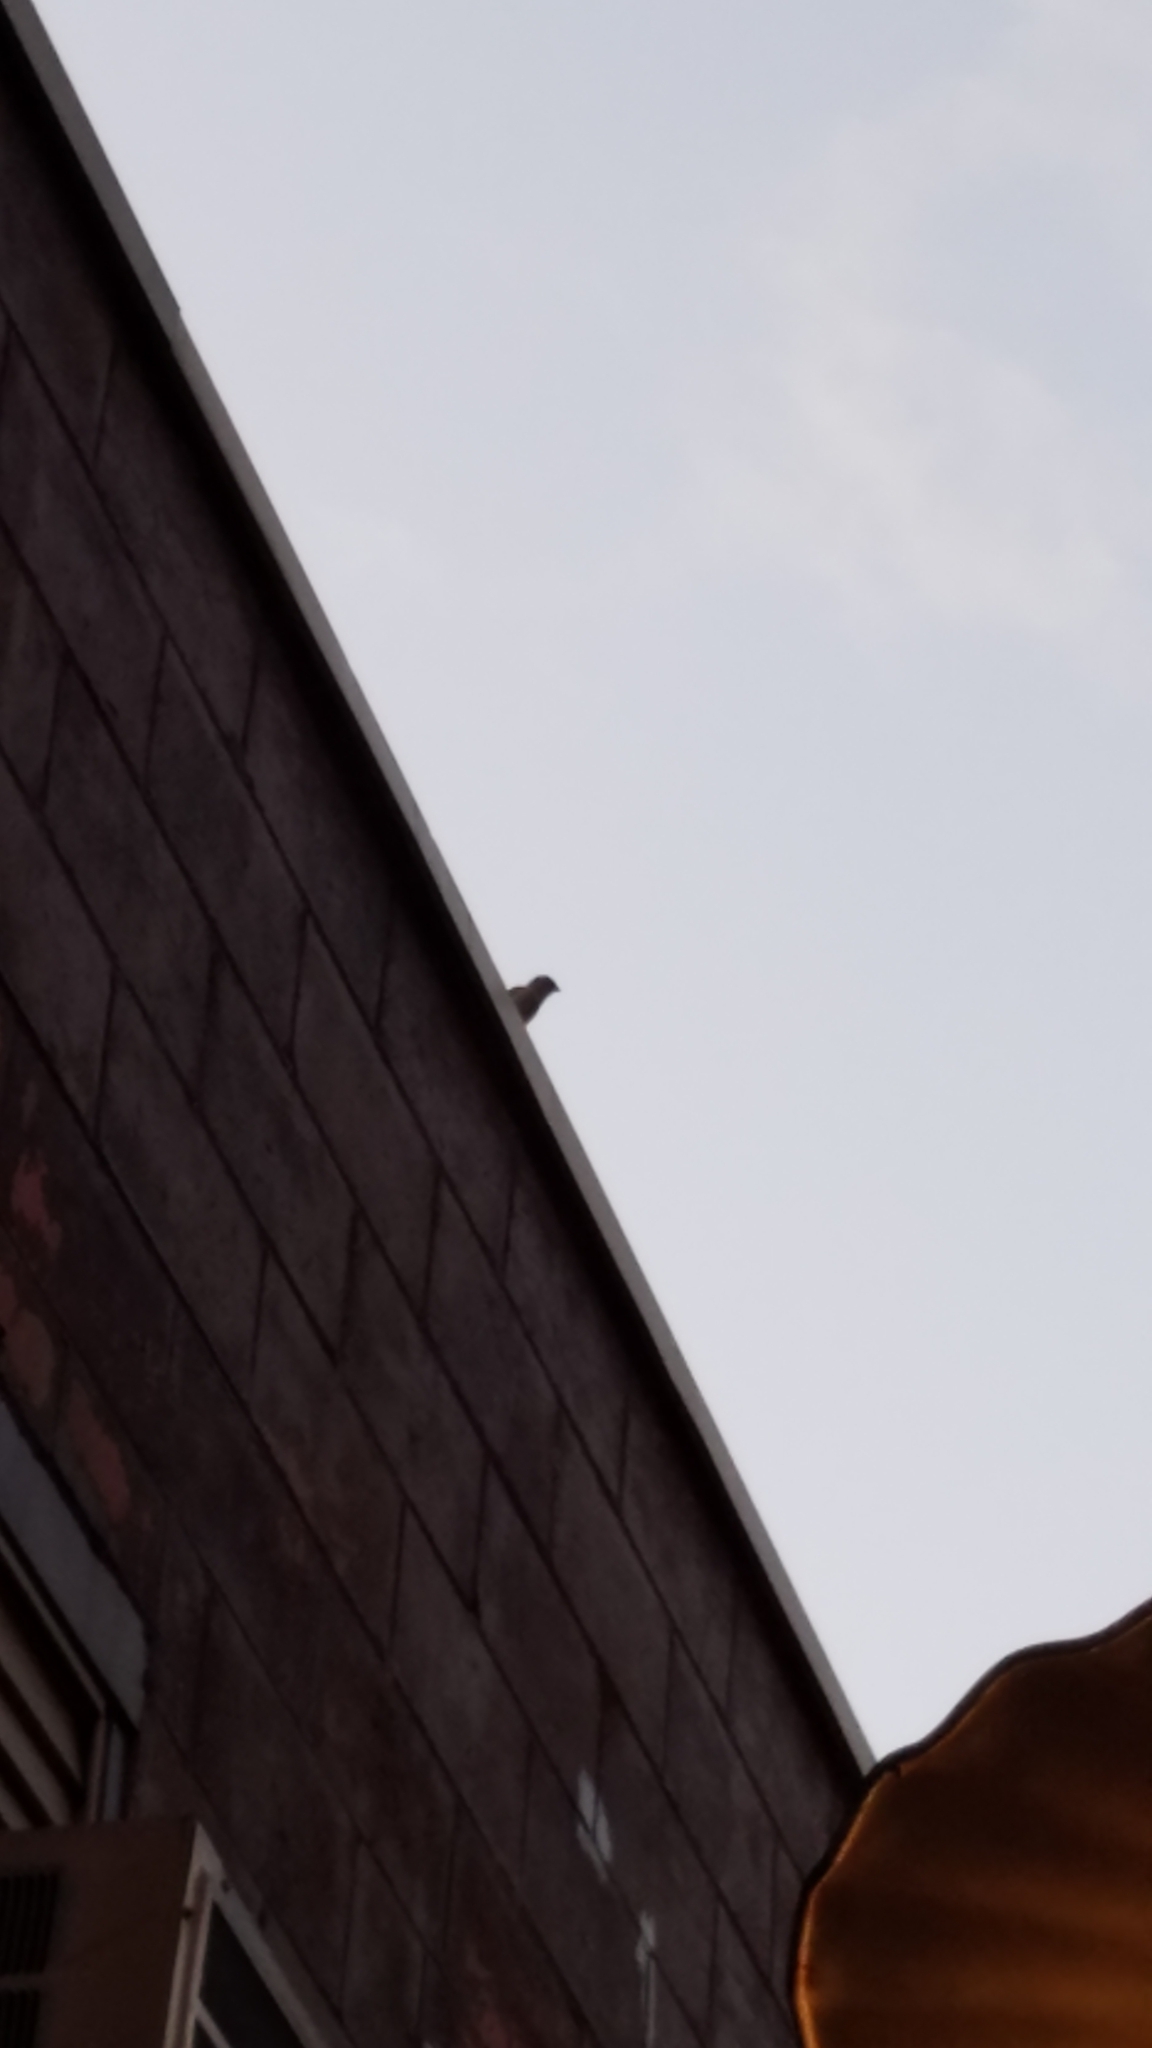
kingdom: Animalia
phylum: Chordata
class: Aves
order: Passeriformes
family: Passeridae
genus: Passer
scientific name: Passer domesticus
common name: House sparrow
